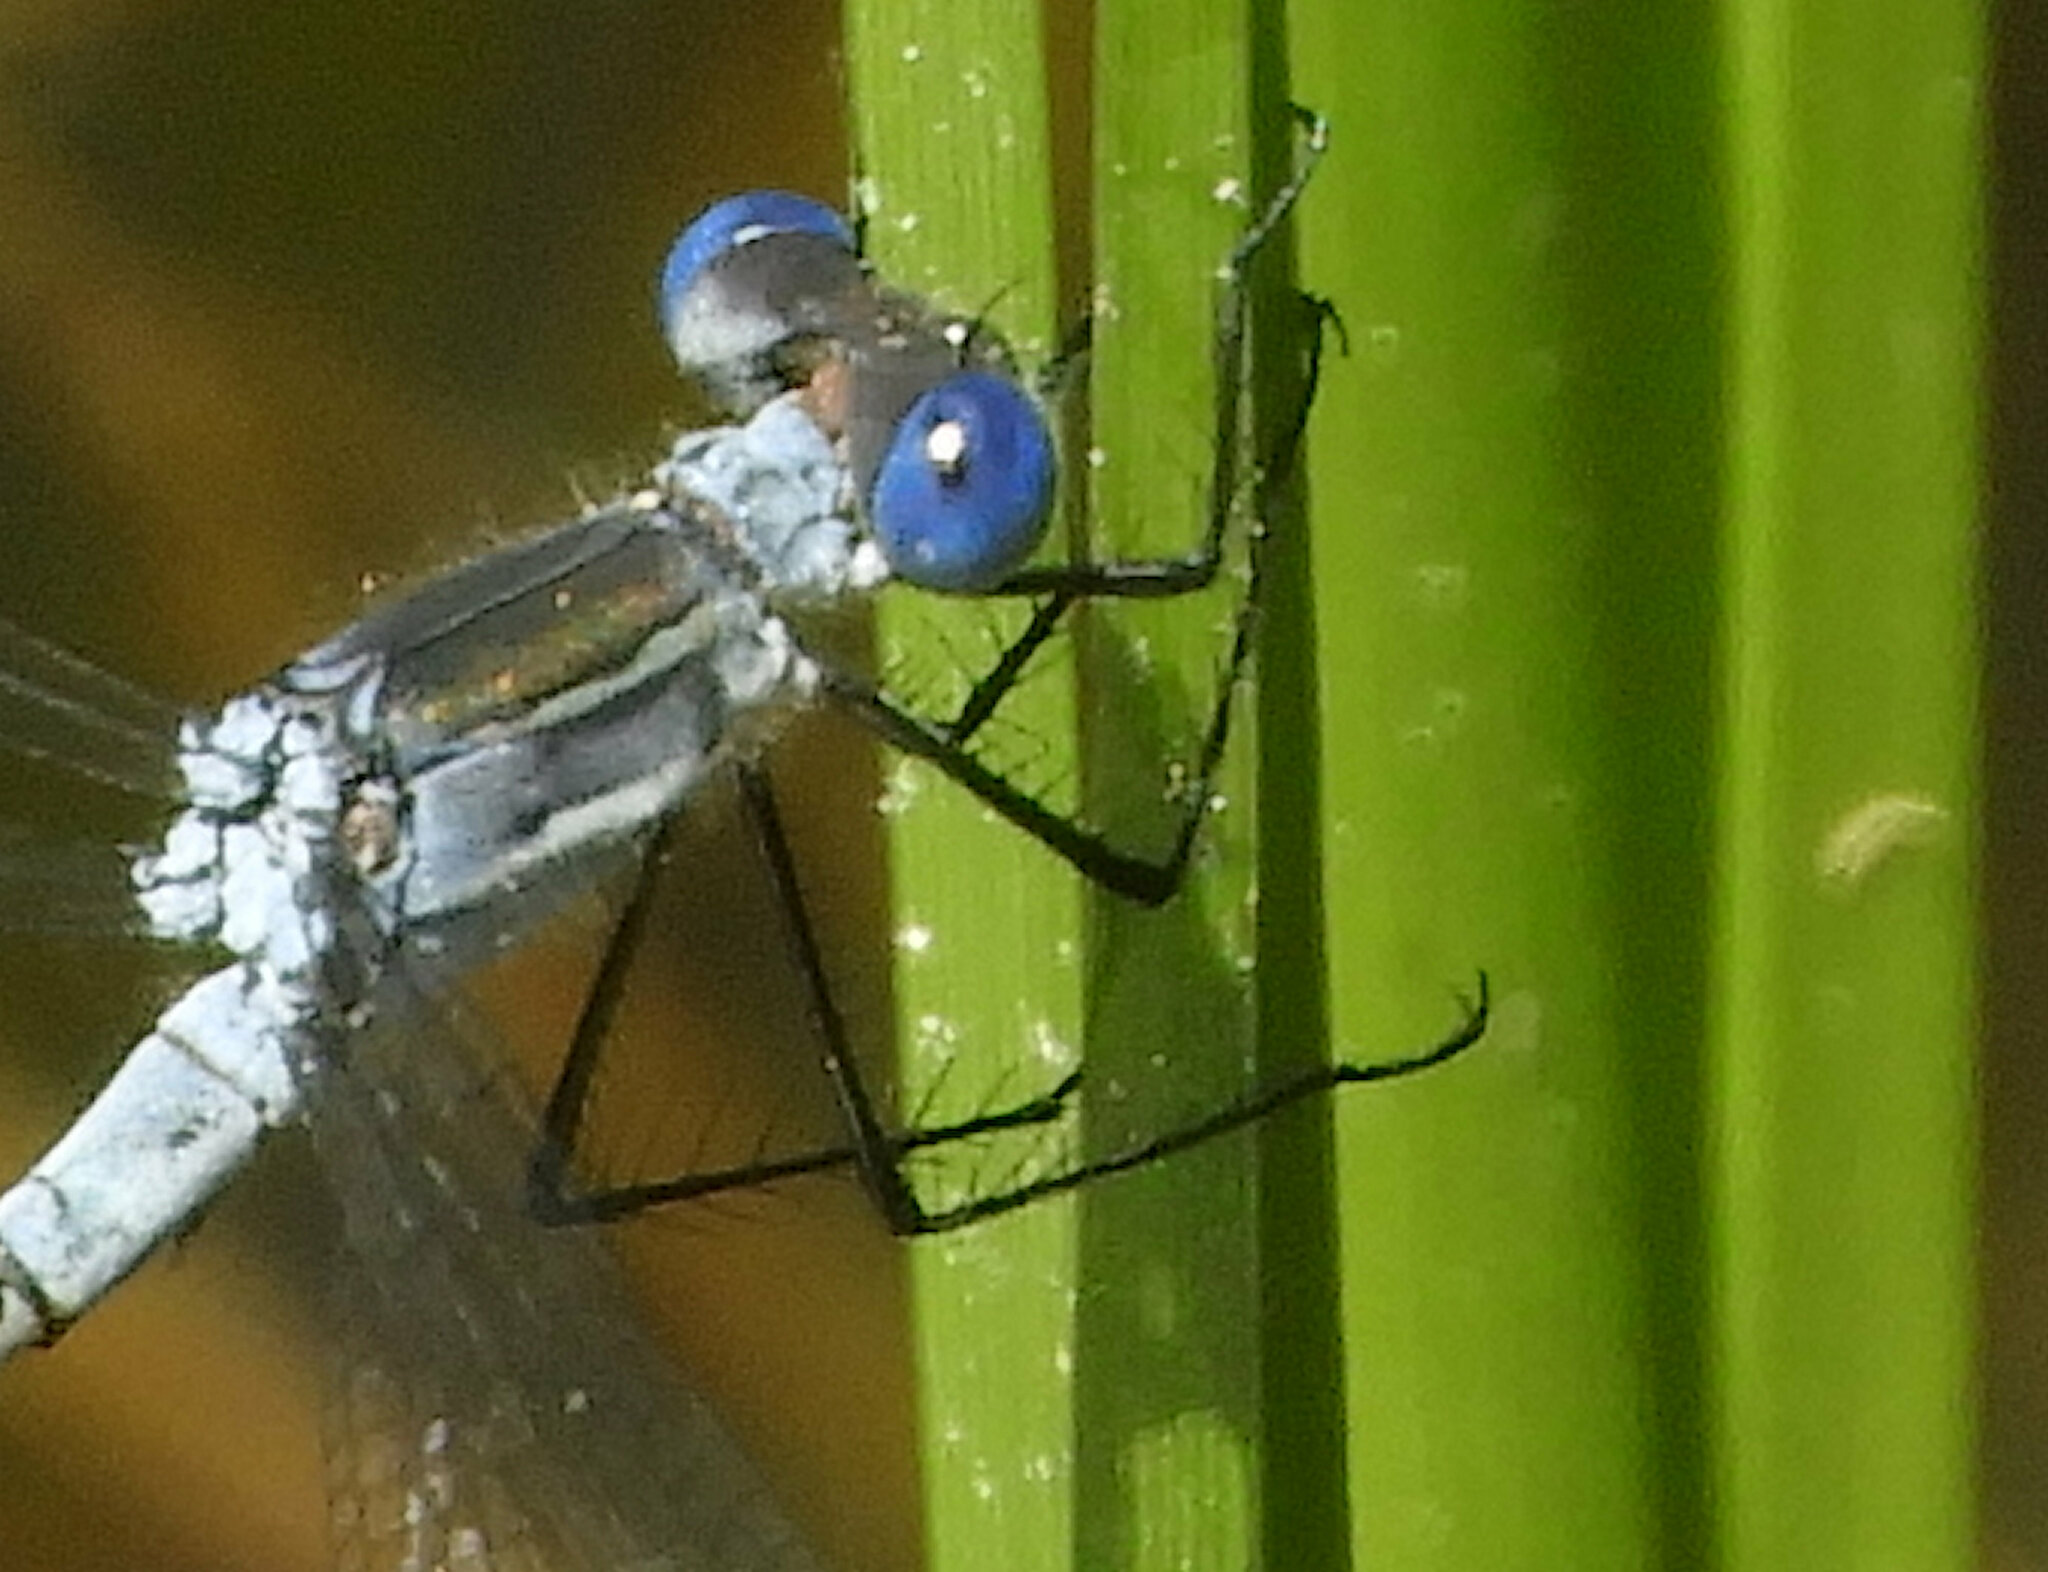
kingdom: Animalia
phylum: Arthropoda
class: Insecta
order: Odonata
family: Lestidae
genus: Lestes
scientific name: Lestes disjunctus
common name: Northern spreadwing
